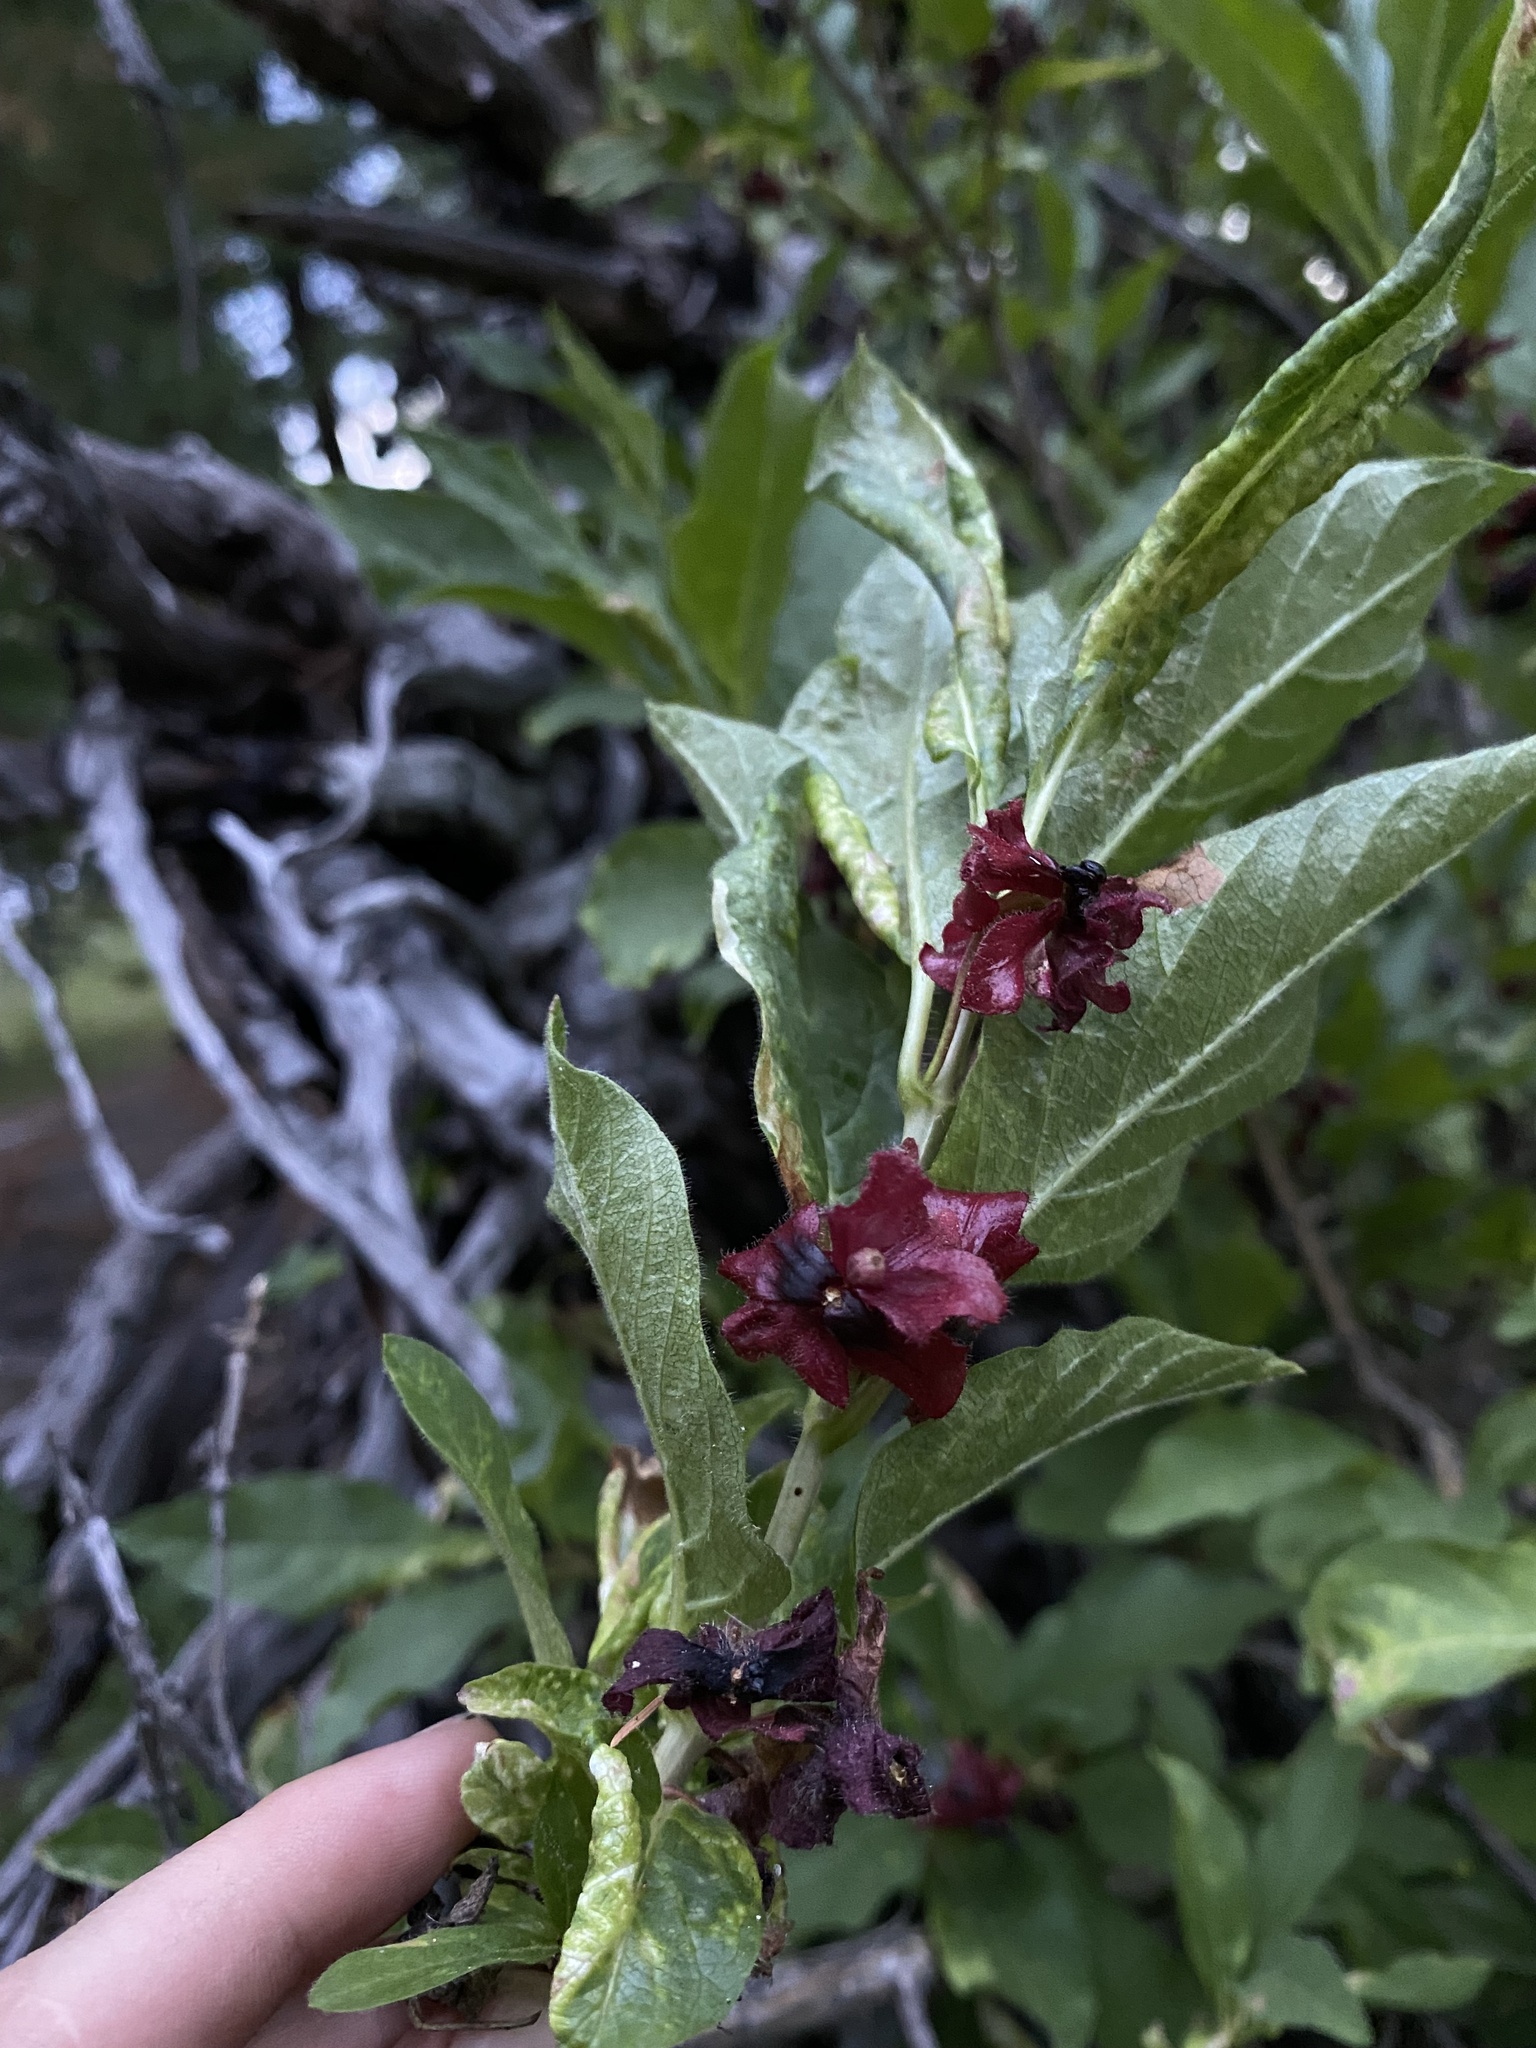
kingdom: Plantae
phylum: Tracheophyta
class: Magnoliopsida
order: Dipsacales
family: Caprifoliaceae
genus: Lonicera
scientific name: Lonicera involucrata
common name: Californian honeysuckle
